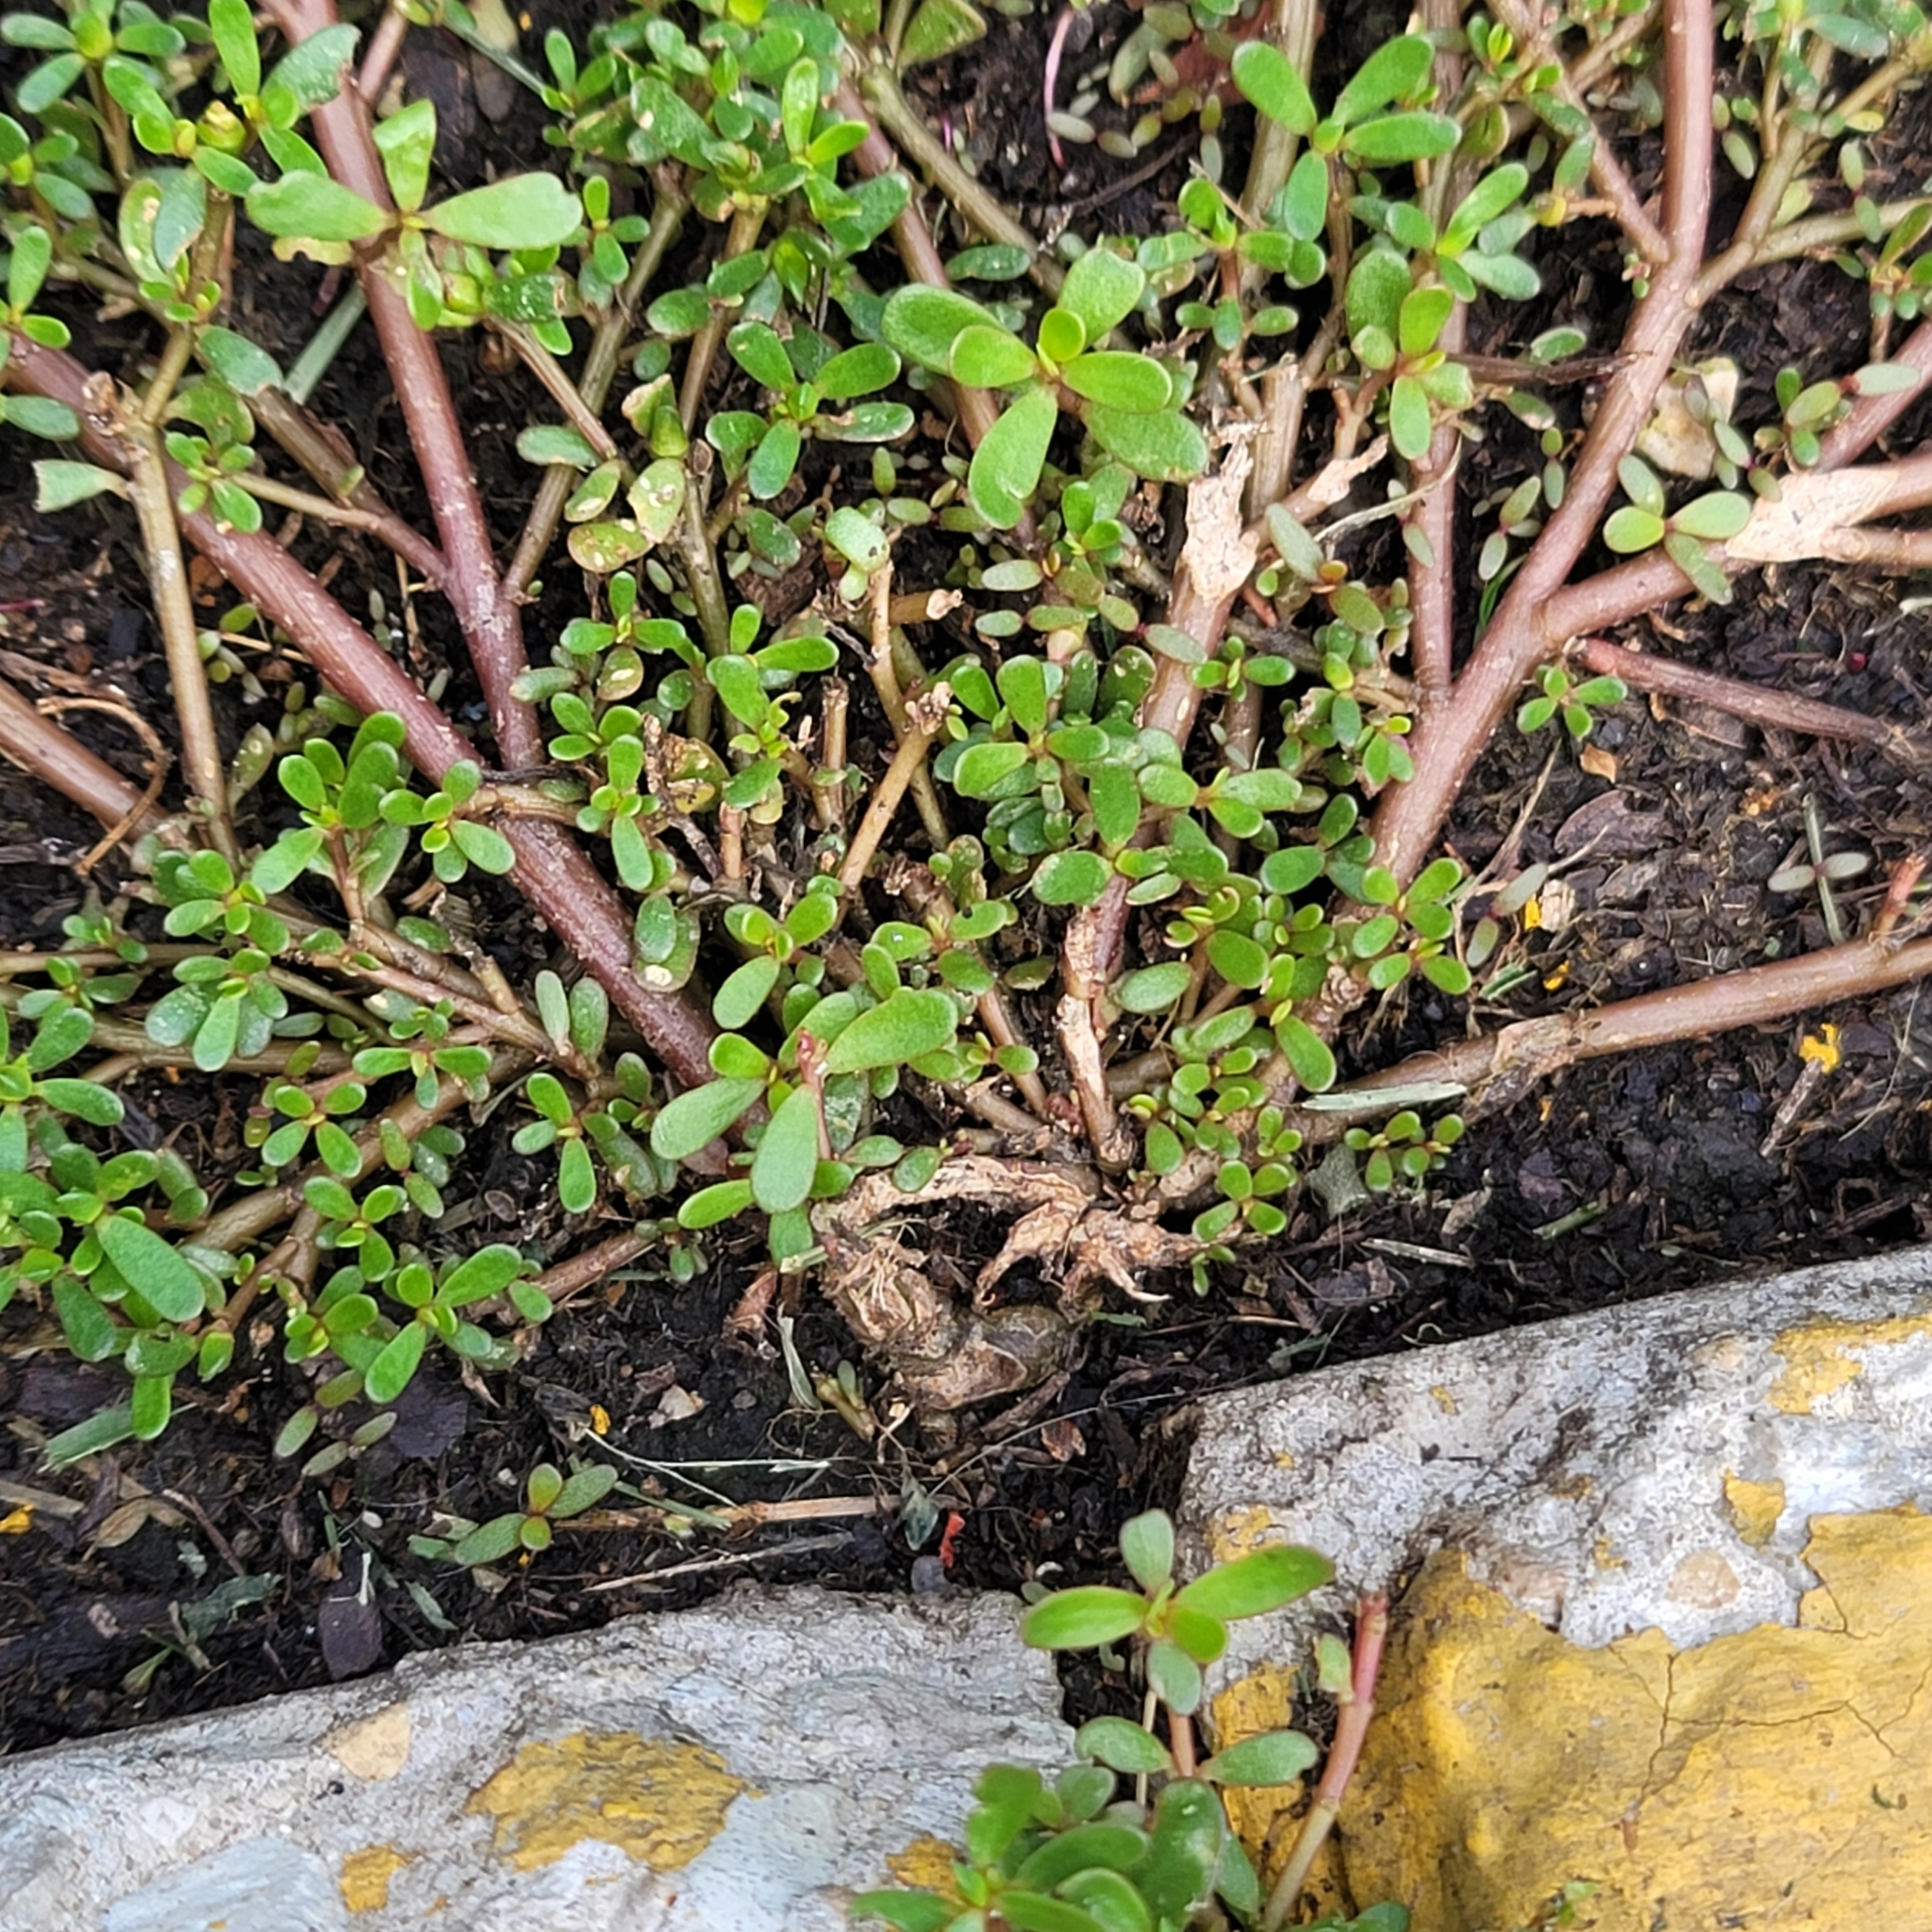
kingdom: Plantae
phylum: Tracheophyta
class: Magnoliopsida
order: Caryophyllales
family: Portulacaceae
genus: Portulaca
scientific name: Portulaca oleracea
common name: Common purslane
